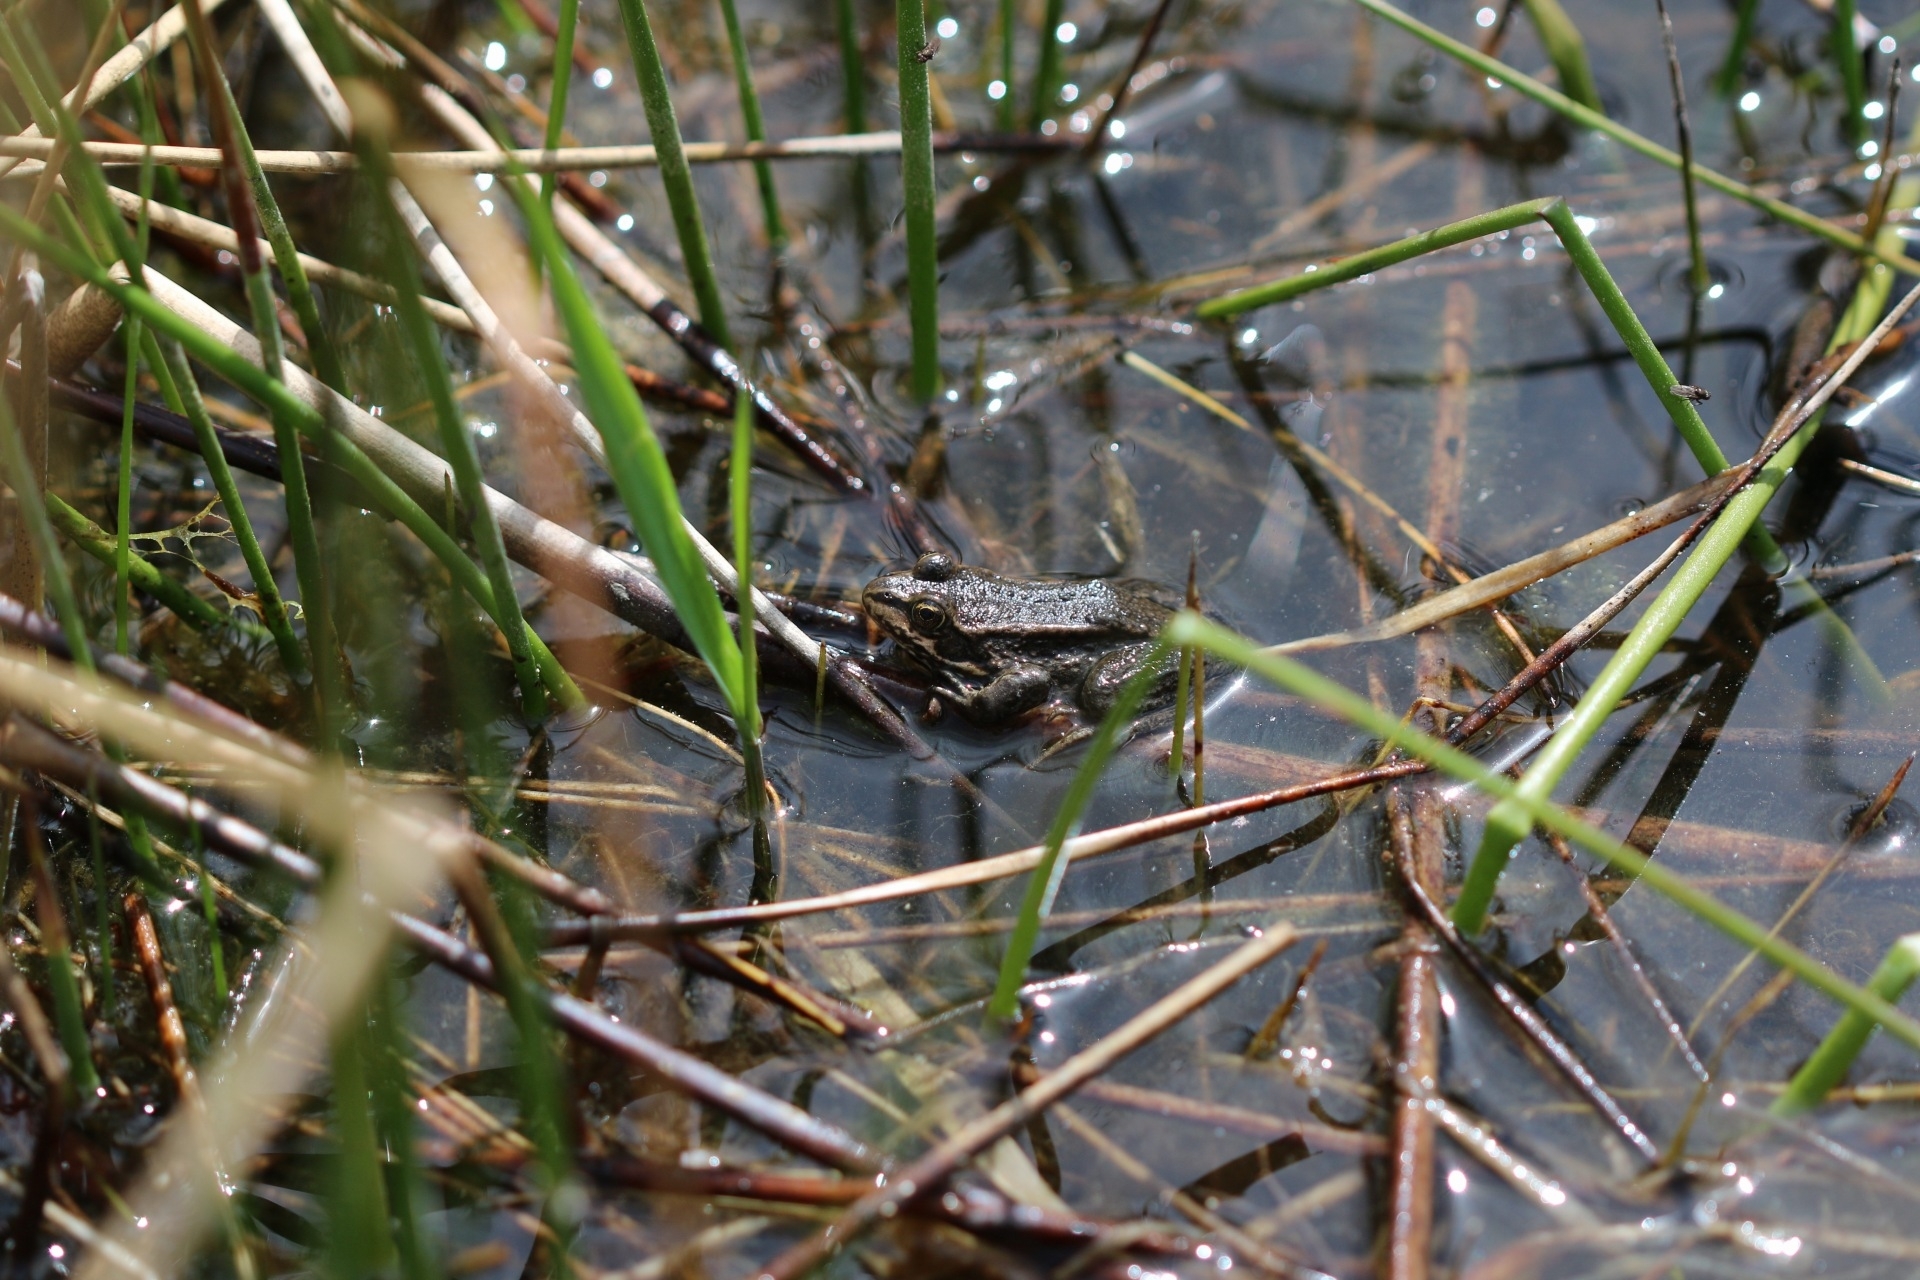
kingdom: Animalia
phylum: Chordata
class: Amphibia
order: Anura
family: Ranidae
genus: Rana
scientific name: Rana luteiventris
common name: Columbia spotted frog
